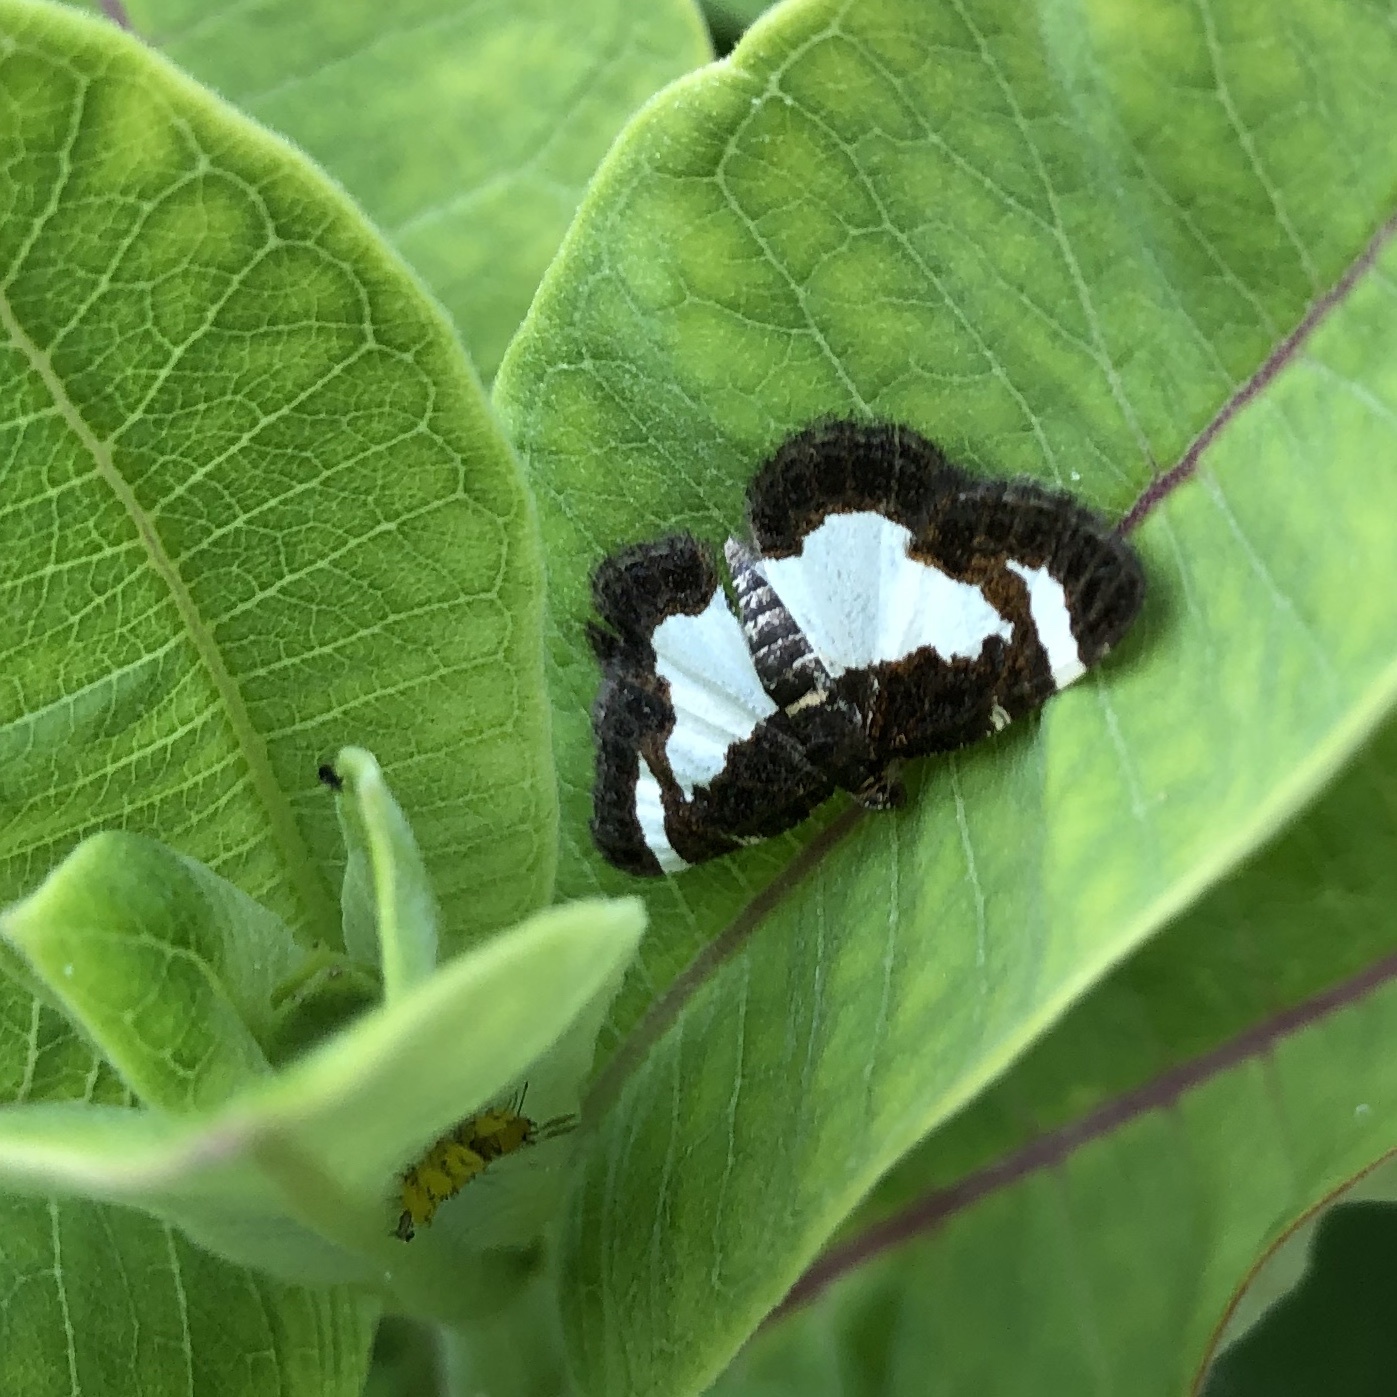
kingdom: Animalia
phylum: Arthropoda
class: Insecta
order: Lepidoptera
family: Geometridae
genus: Heliomata
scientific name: Heliomata cycladata
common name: Common spring moth
